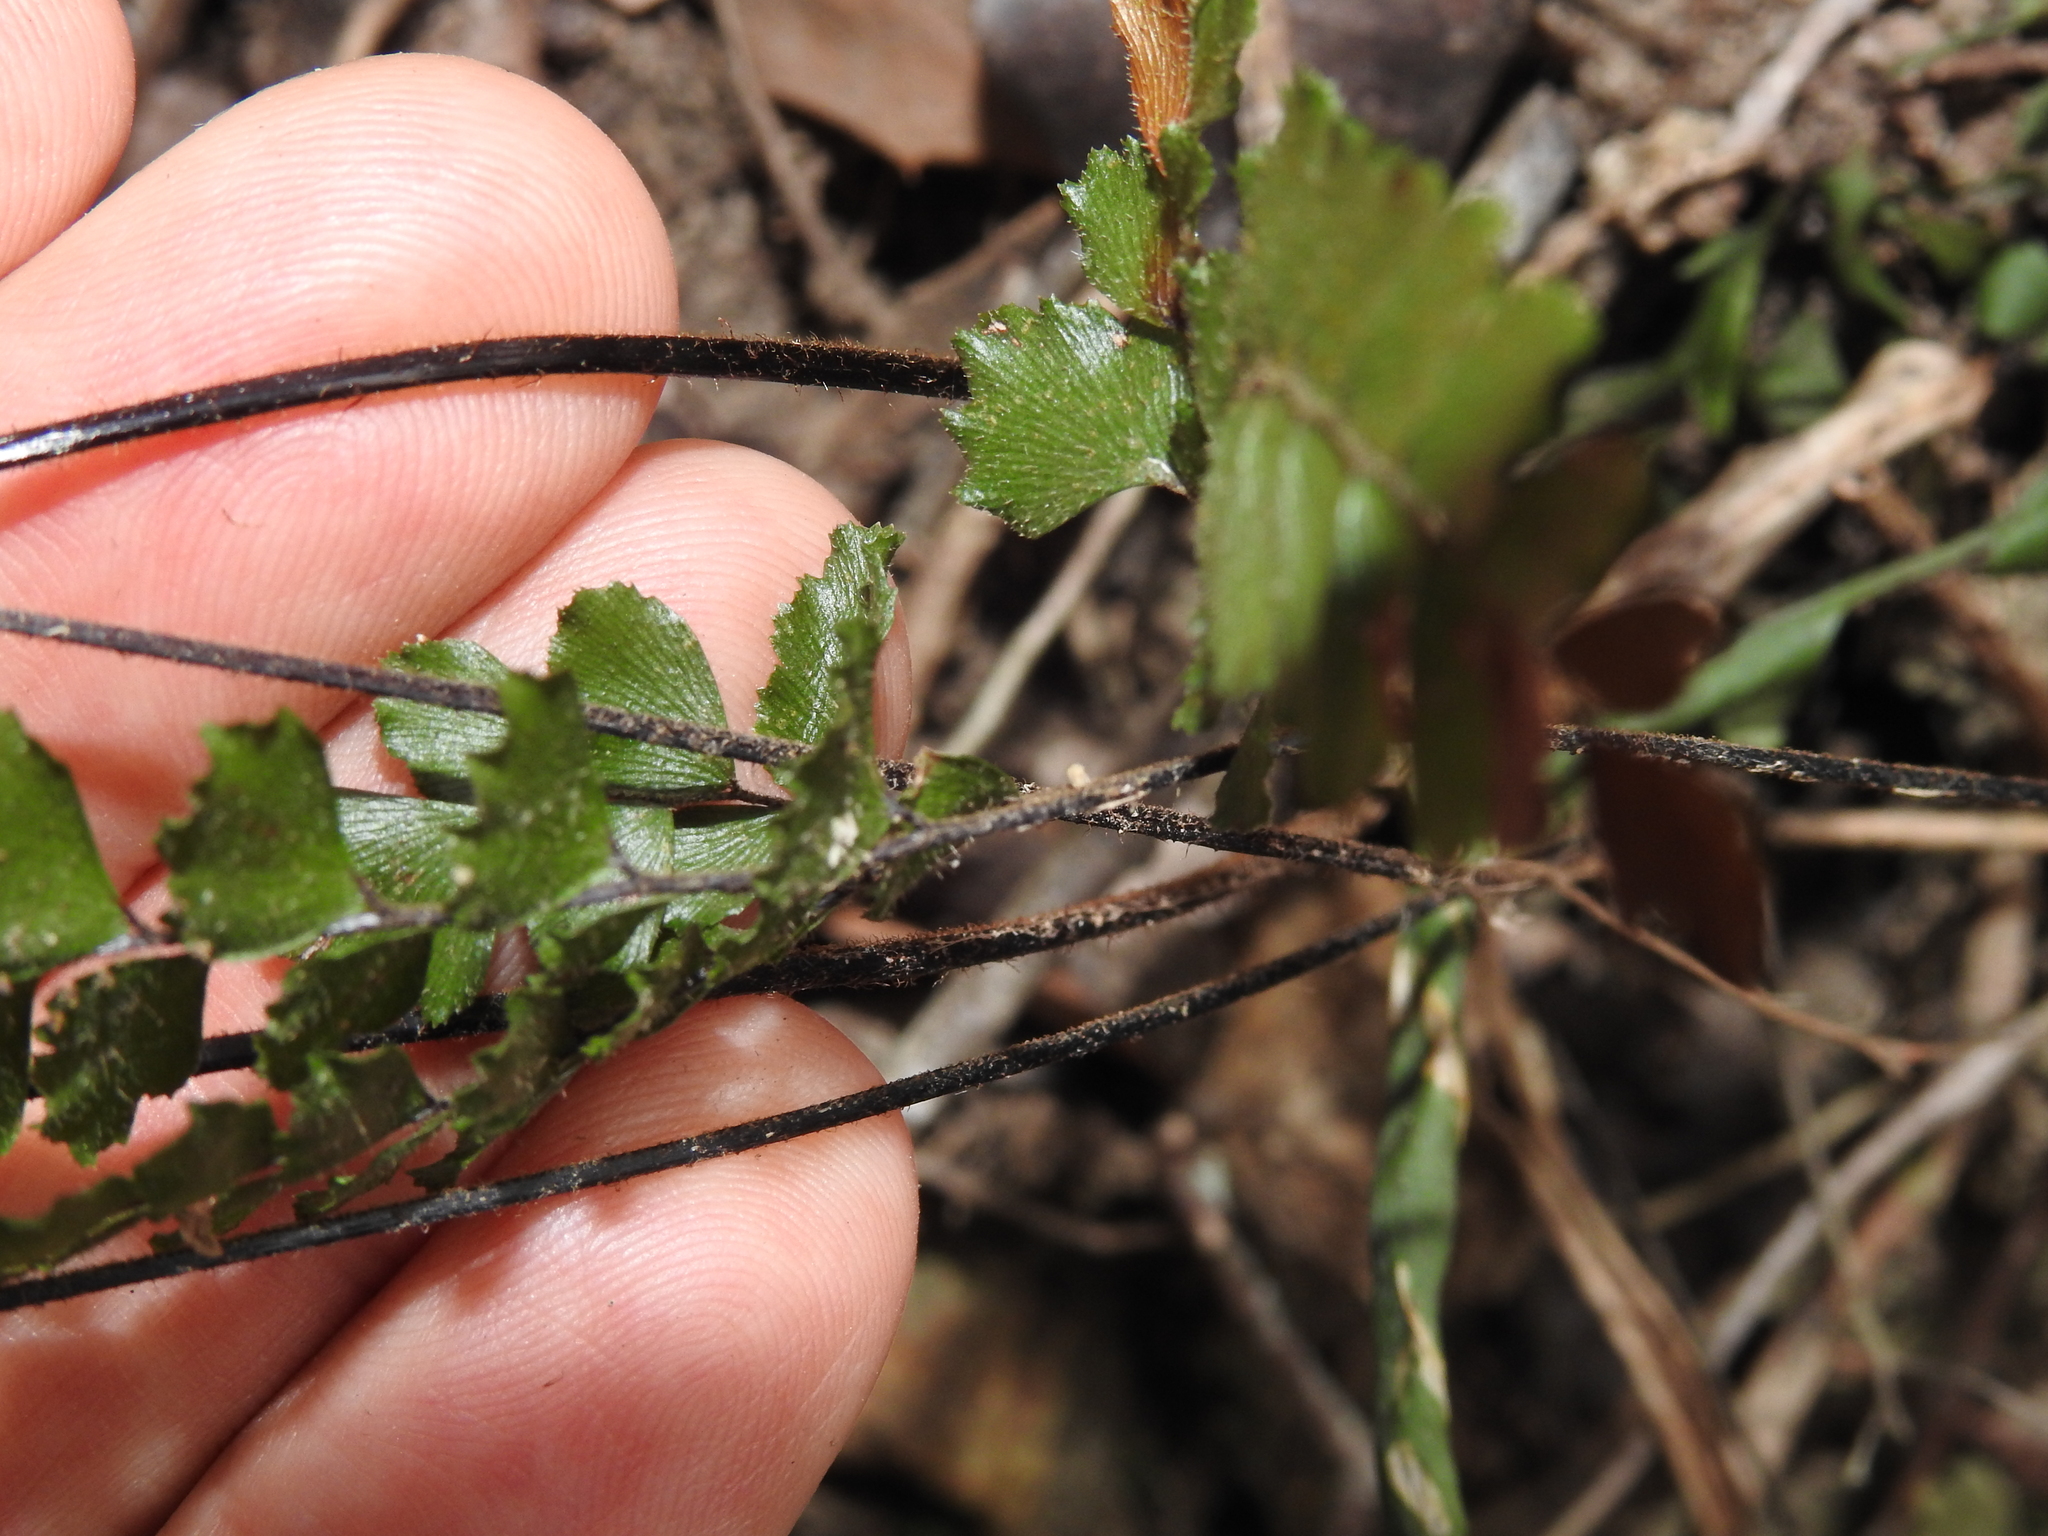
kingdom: Plantae
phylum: Tracheophyta
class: Polypodiopsida
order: Polypodiales
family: Pteridaceae
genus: Adiantum
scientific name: Adiantum hispidulum
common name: Rough maidenhair
